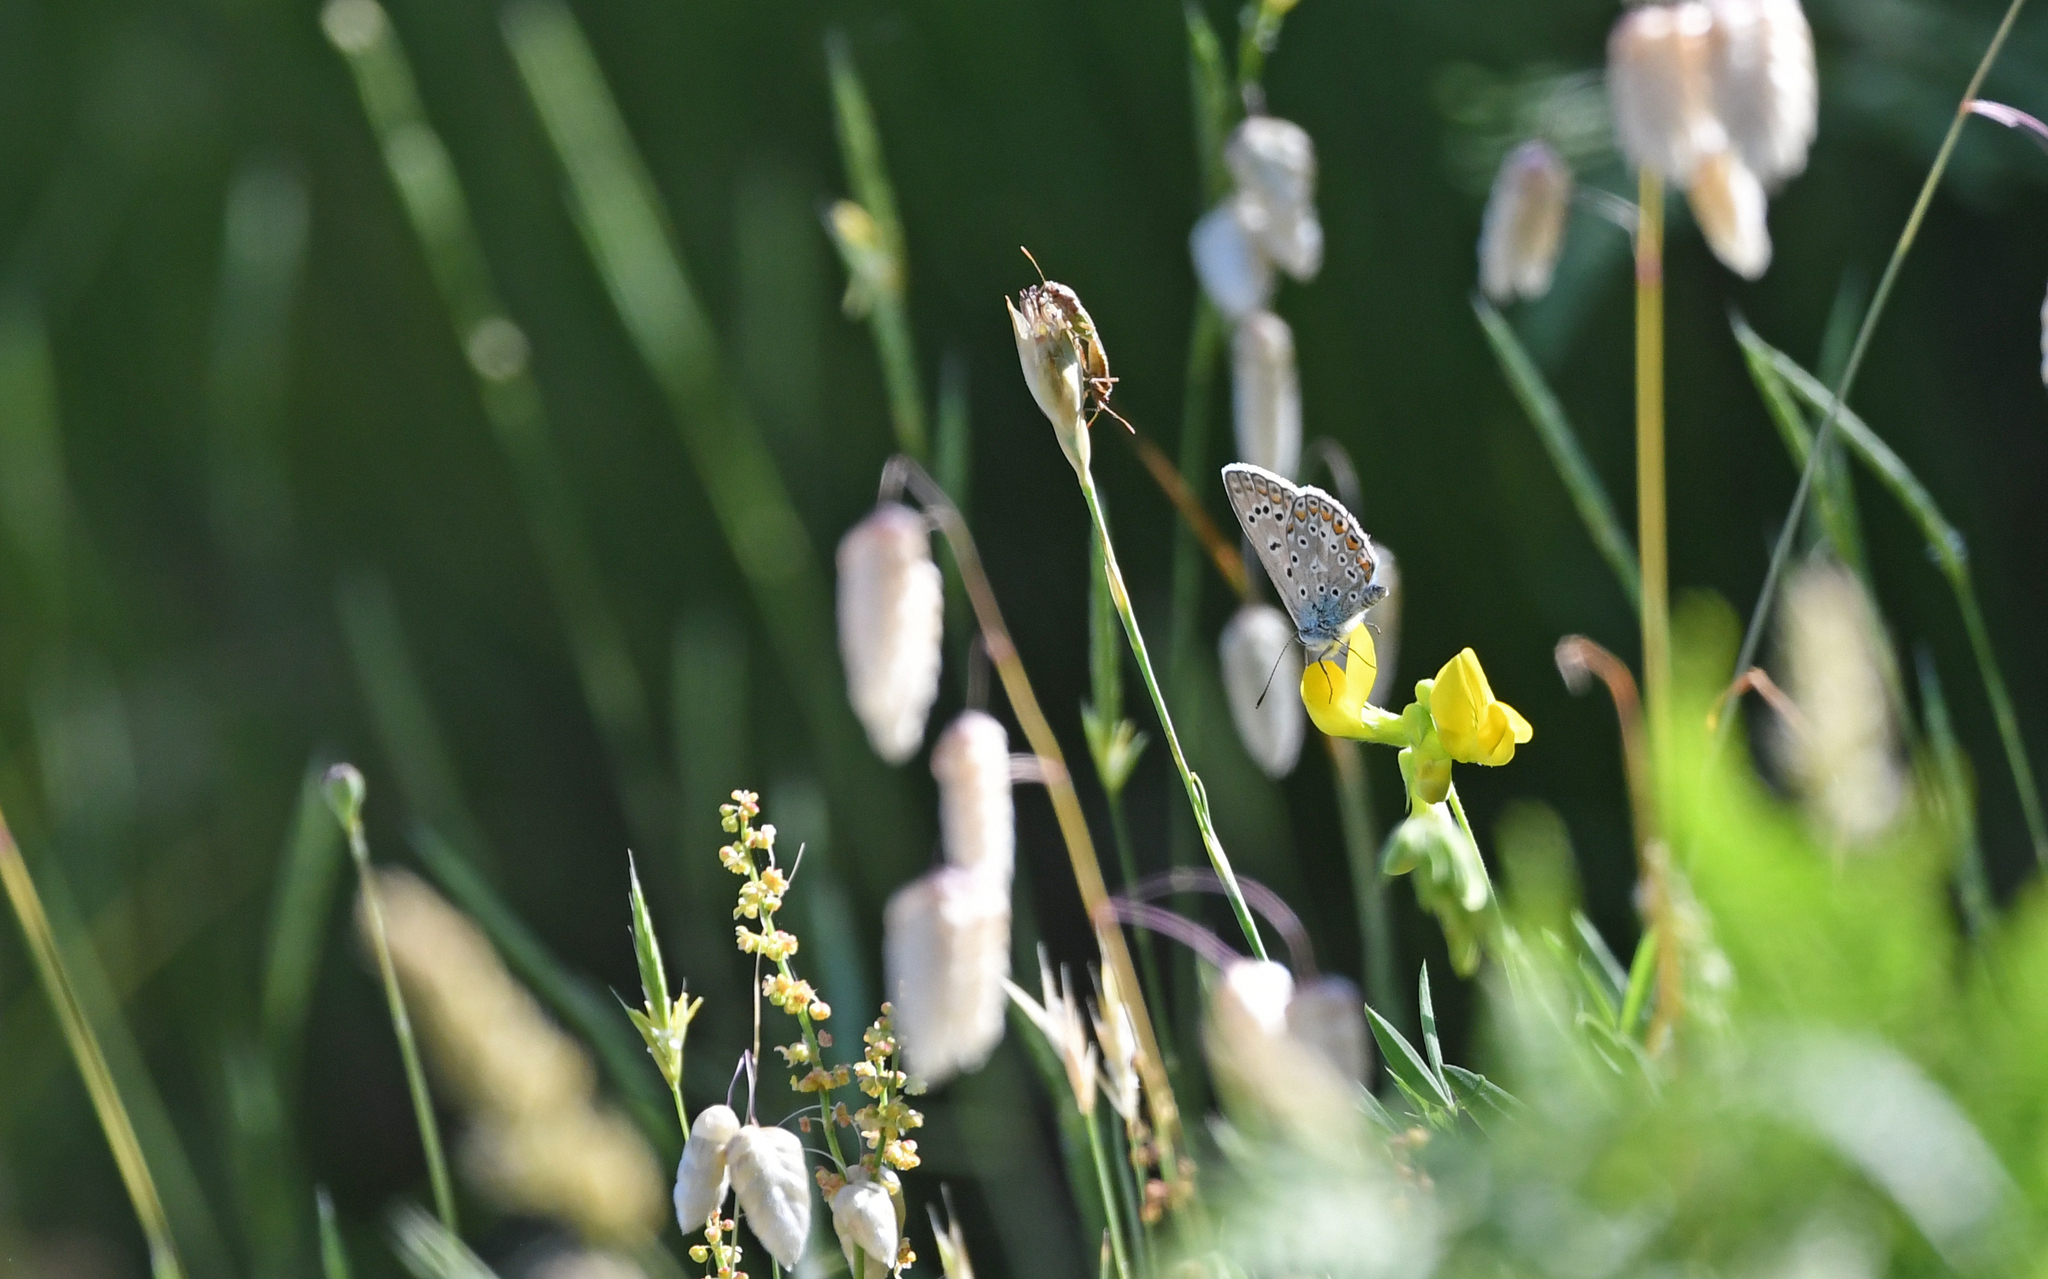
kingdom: Animalia
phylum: Arthropoda
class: Insecta
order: Lepidoptera
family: Lycaenidae
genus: Polyommatus
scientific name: Polyommatus icarus
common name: Common blue
